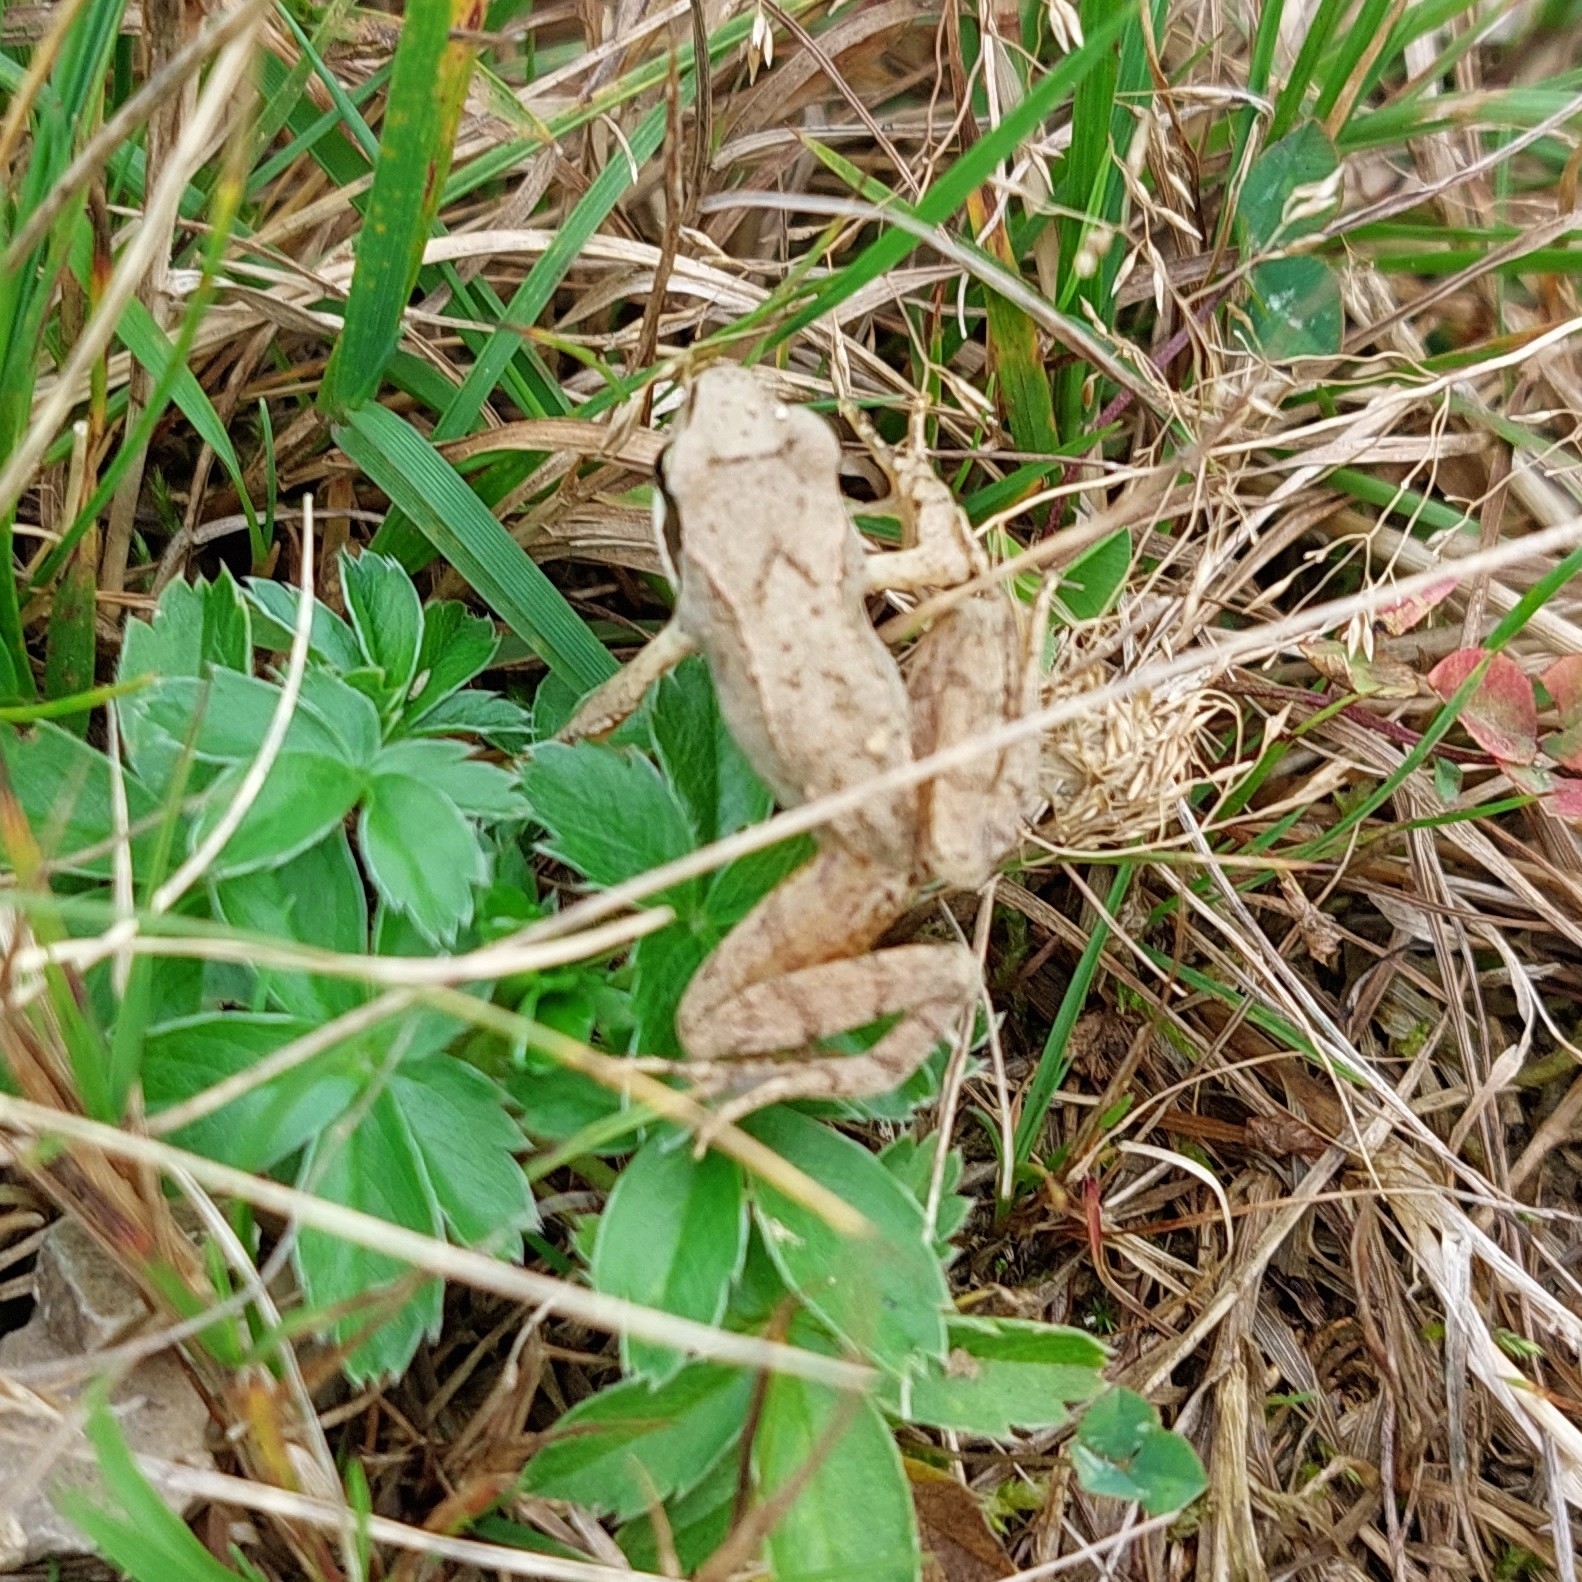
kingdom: Animalia
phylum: Chordata
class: Amphibia
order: Anura
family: Ranidae
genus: Rana
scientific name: Rana temporaria
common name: Common frog
